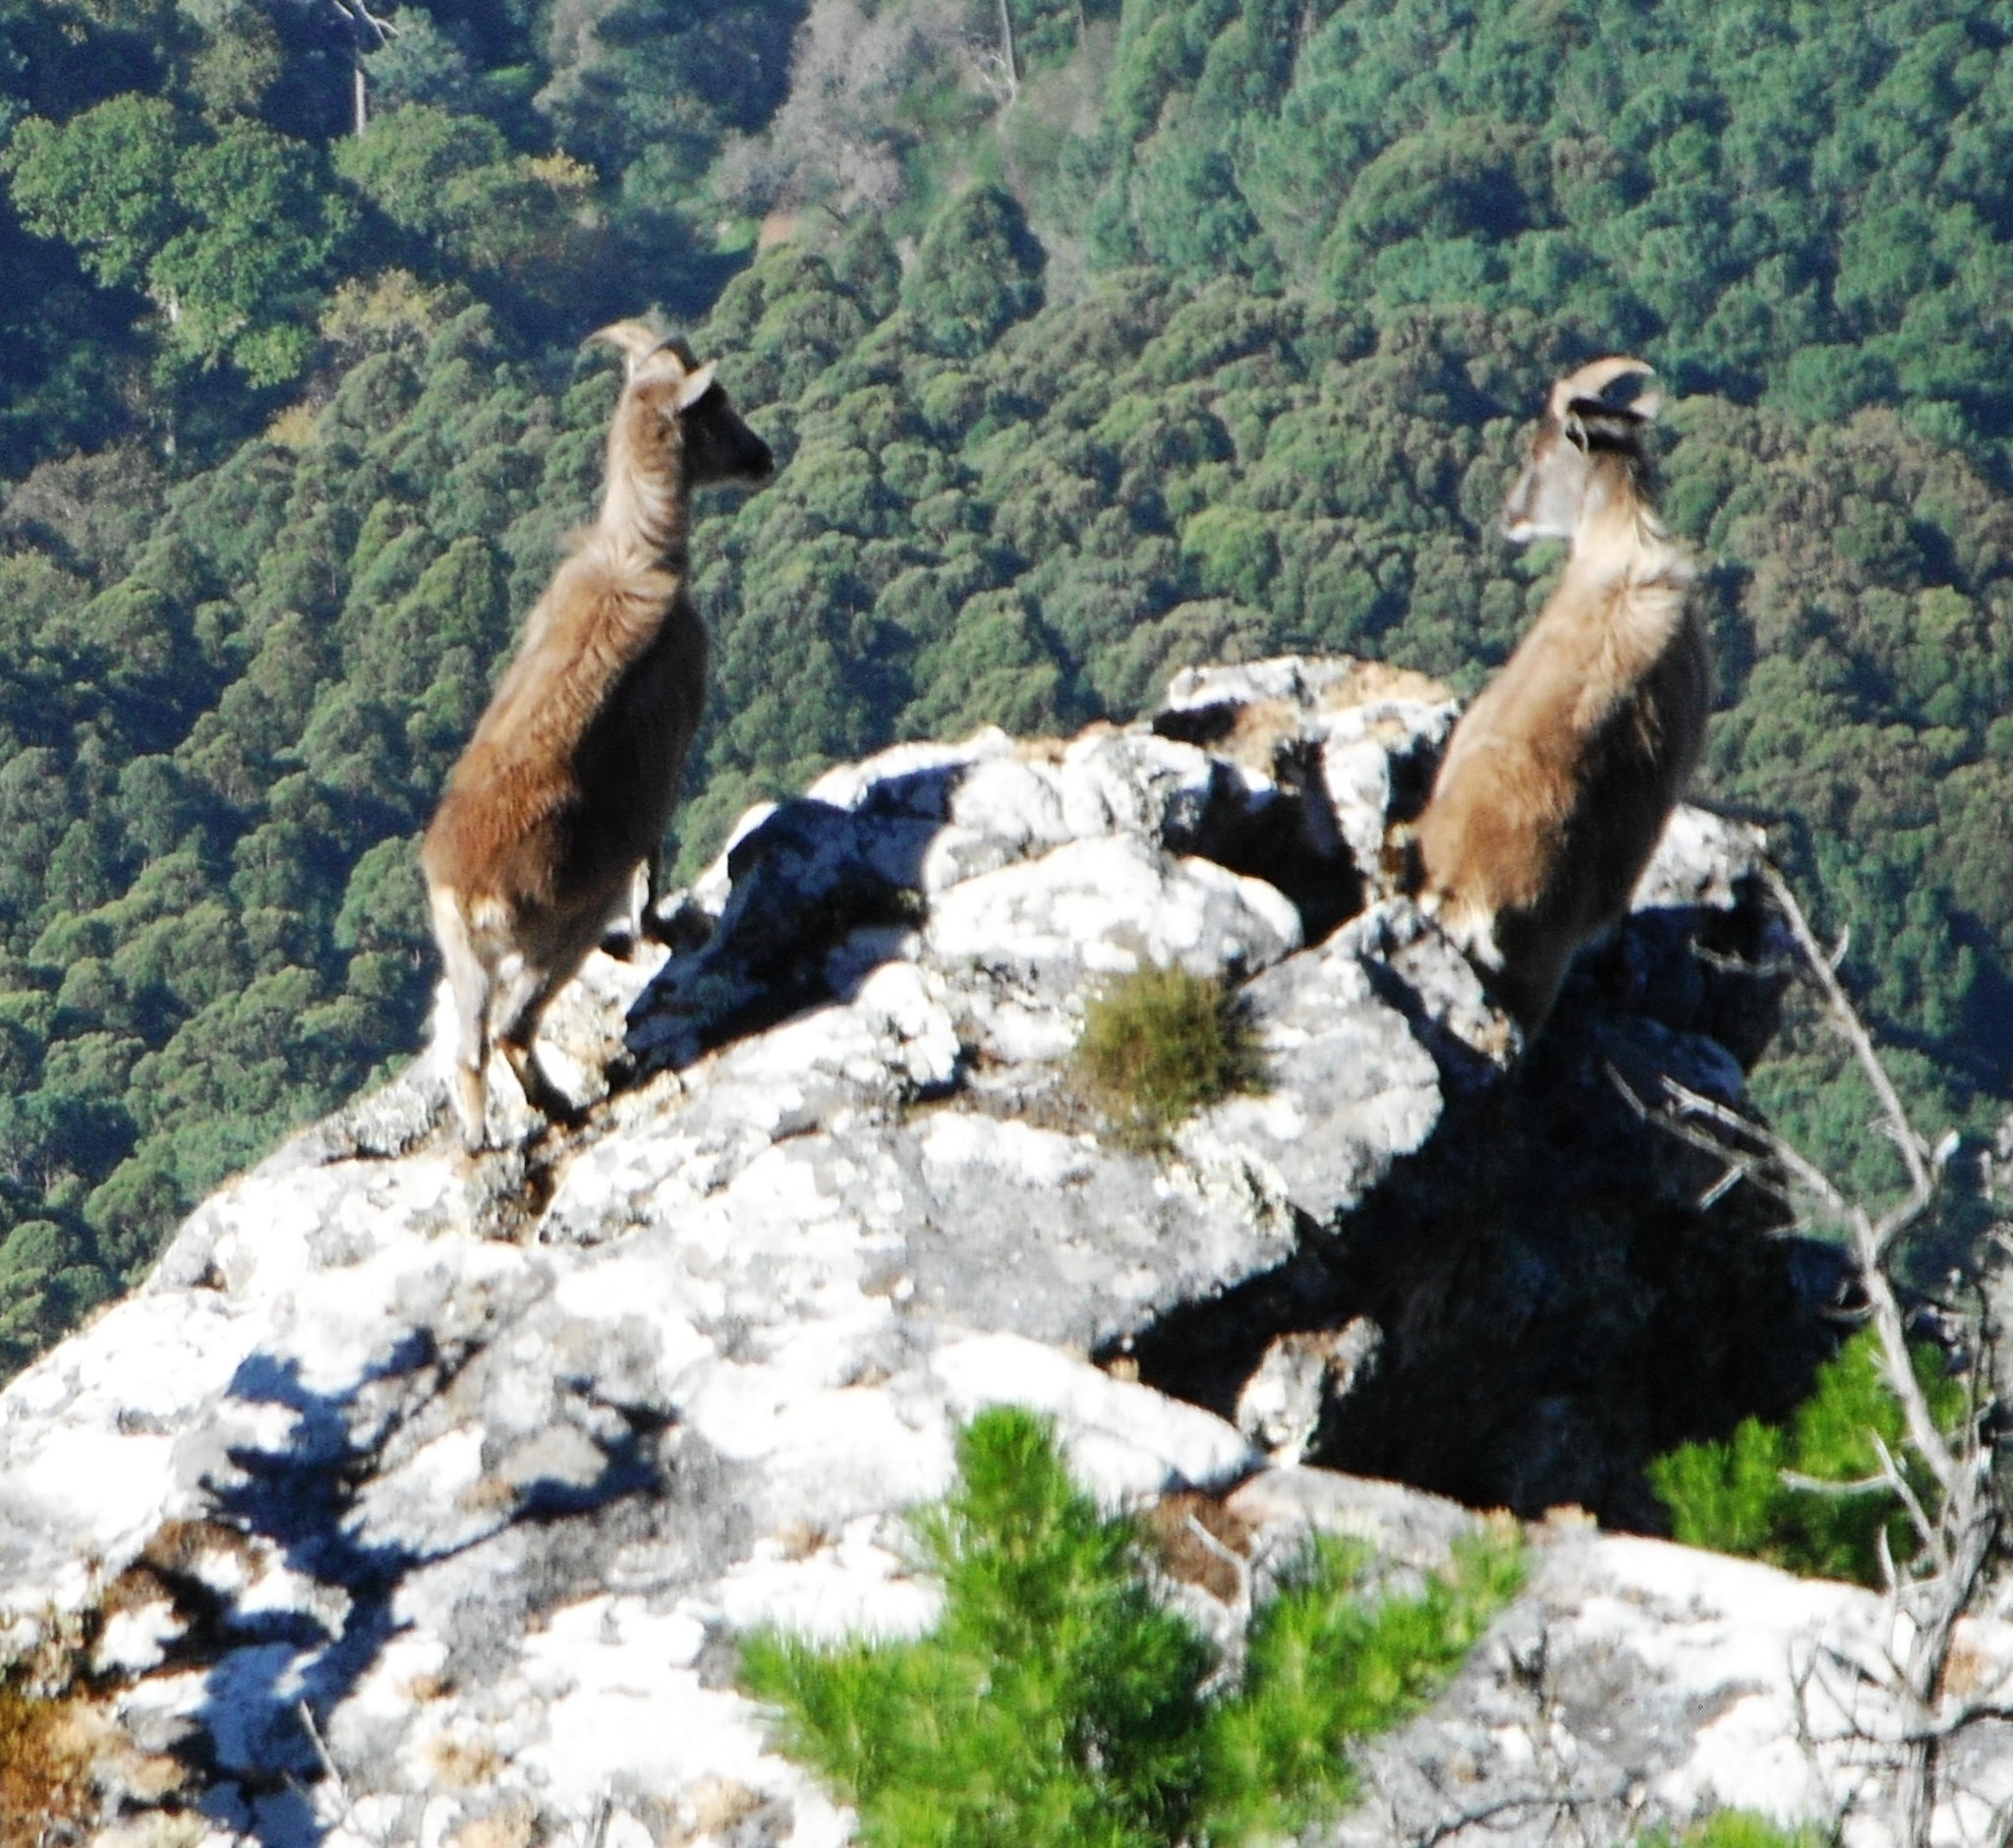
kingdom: Animalia
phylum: Chordata
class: Mammalia
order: Artiodactyla
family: Bovidae
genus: Hemitragus
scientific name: Hemitragus jemlahicus
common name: Himalayan tahr
